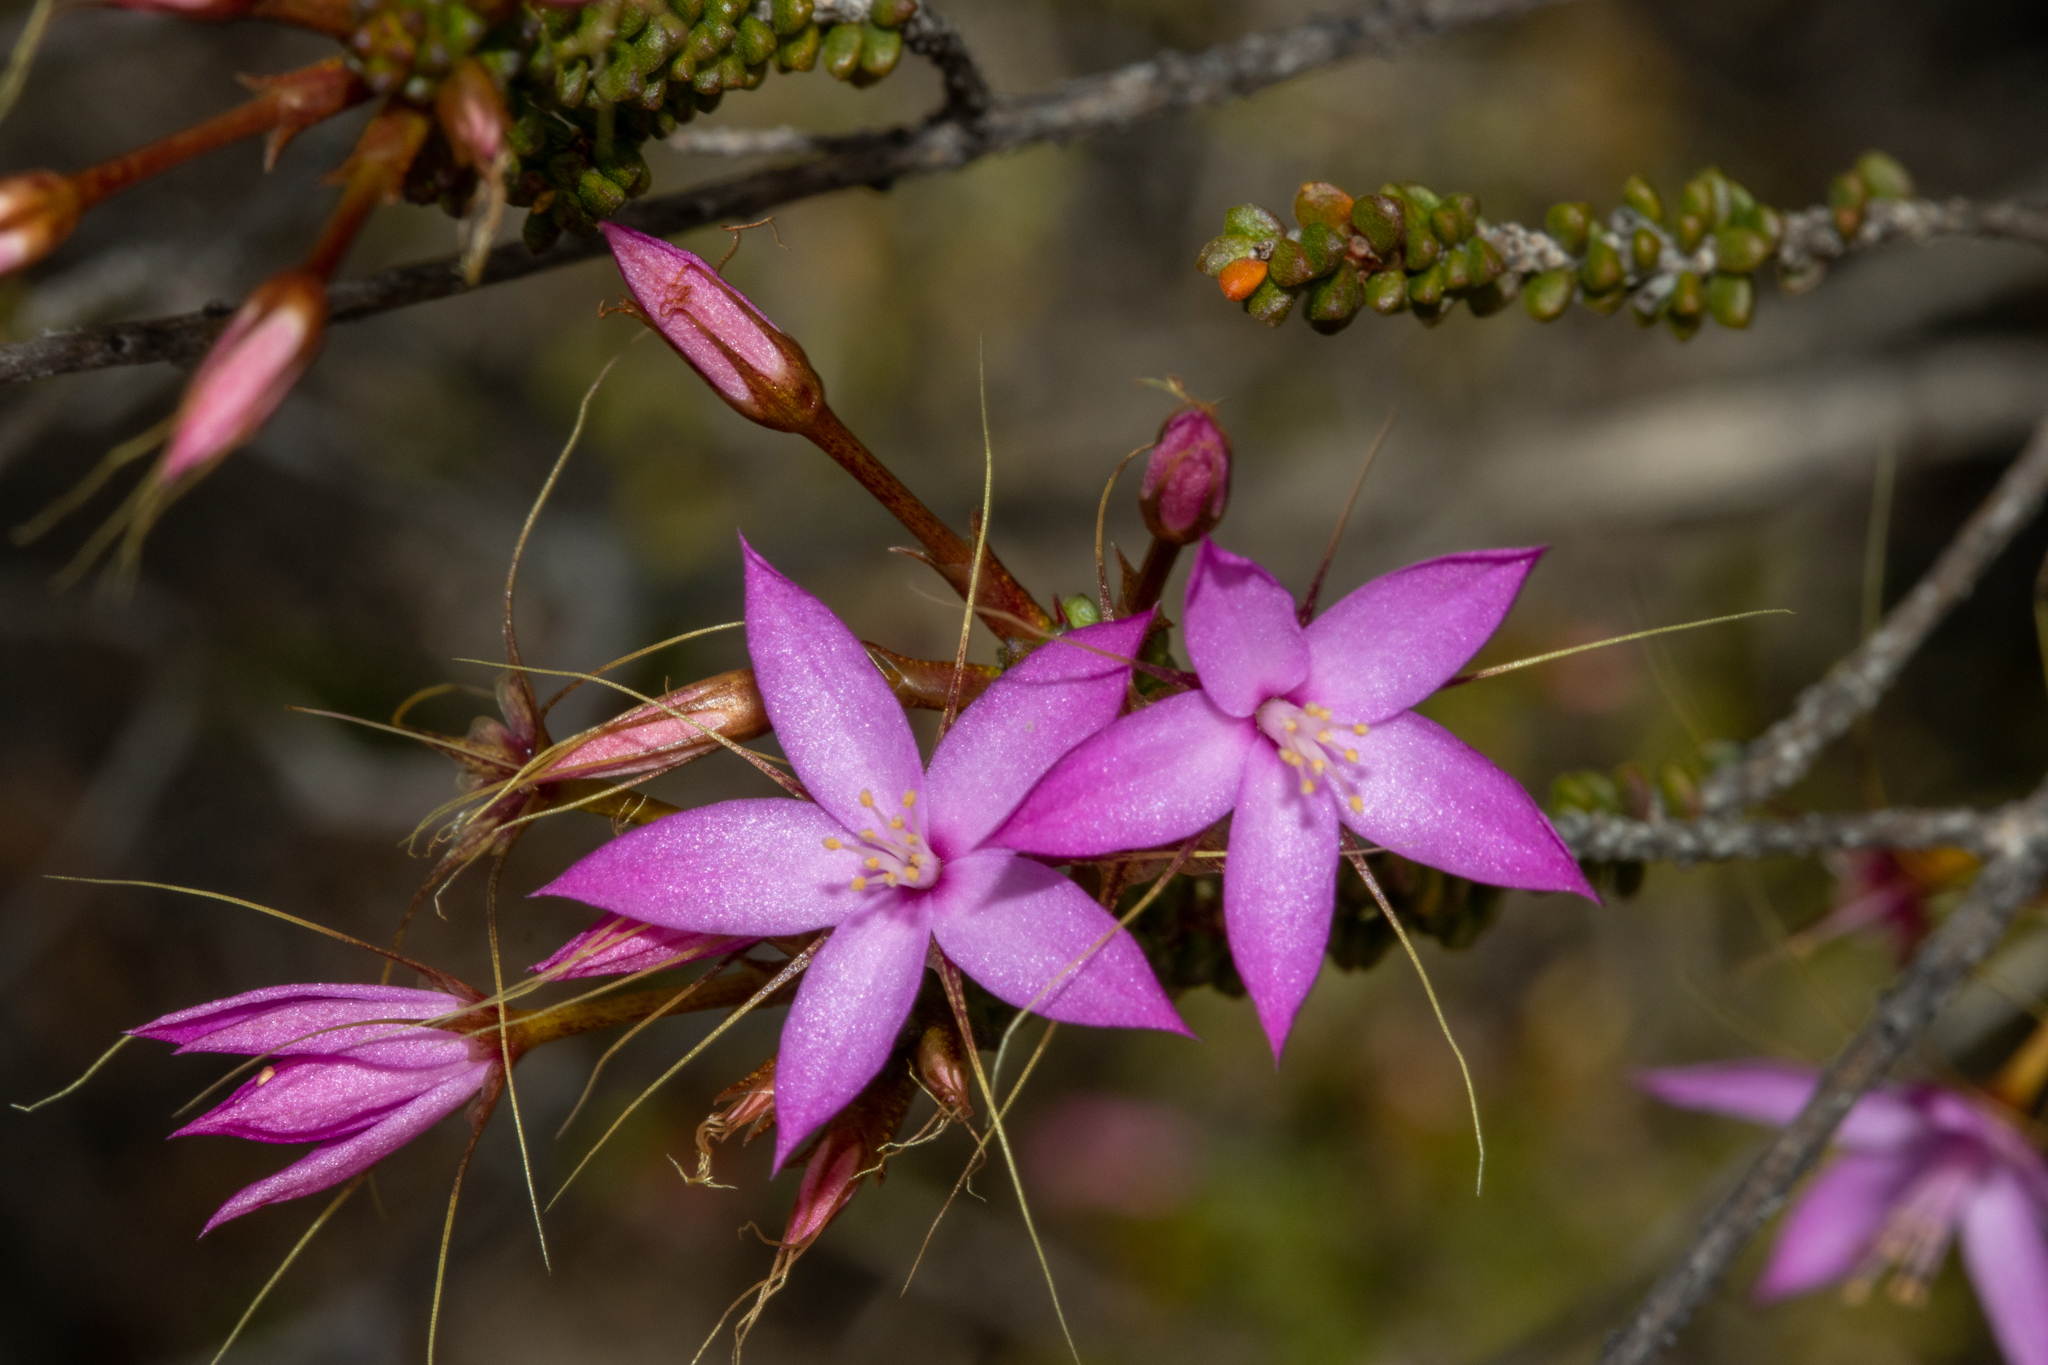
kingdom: Plantae
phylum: Tracheophyta
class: Magnoliopsida
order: Myrtales
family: Myrtaceae
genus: Calytrix
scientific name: Calytrix duplistipulata
